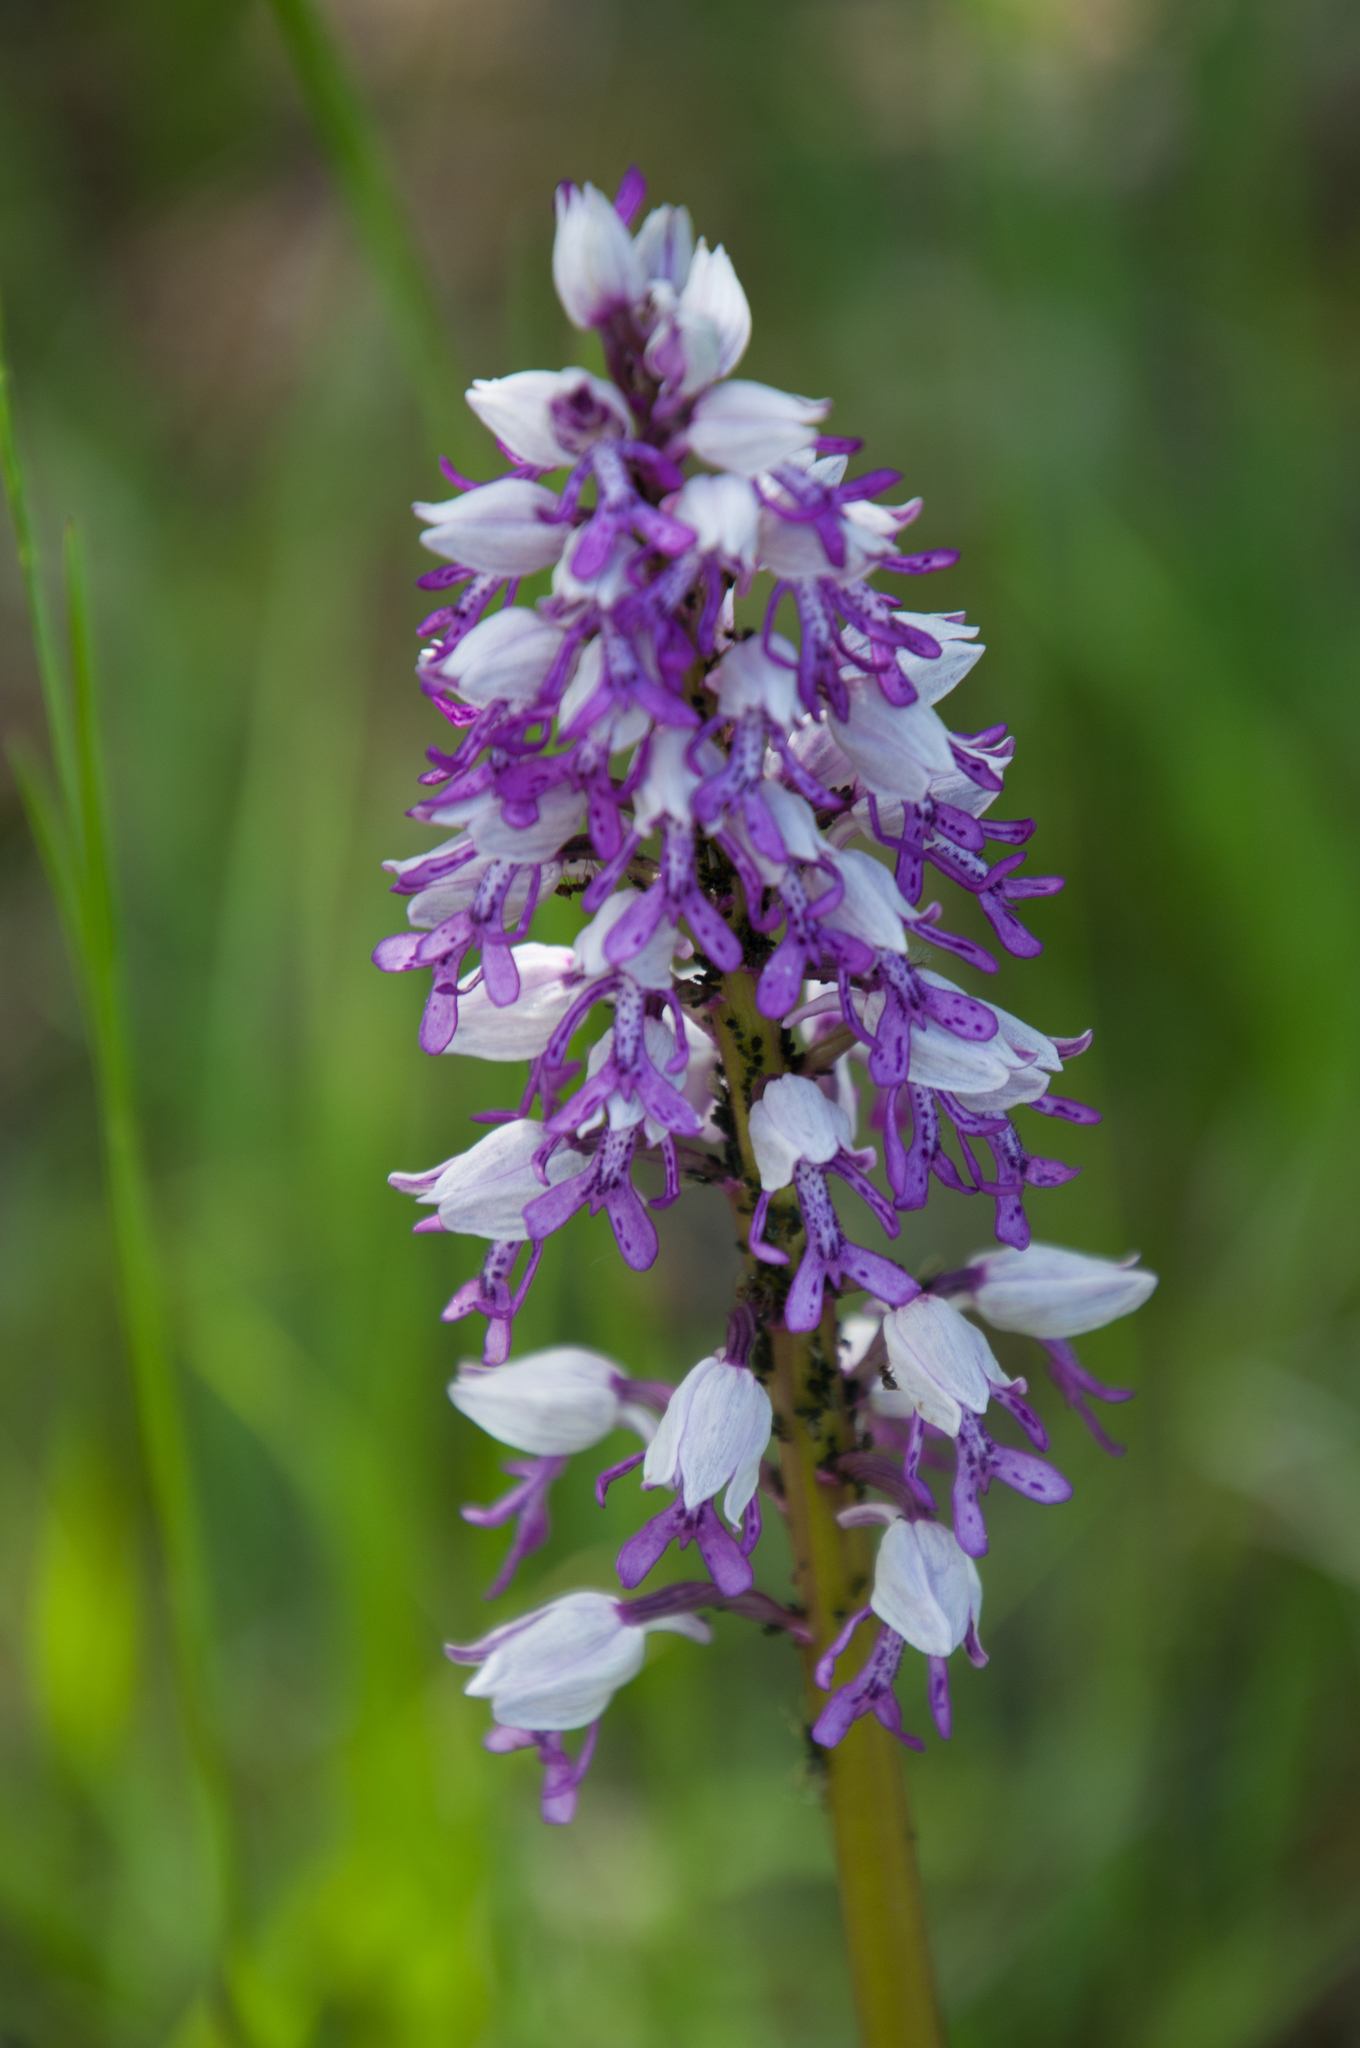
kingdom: Plantae
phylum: Tracheophyta
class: Liliopsida
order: Asparagales
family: Orchidaceae
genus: Orchis
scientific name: Orchis militaris
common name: Military orchid
